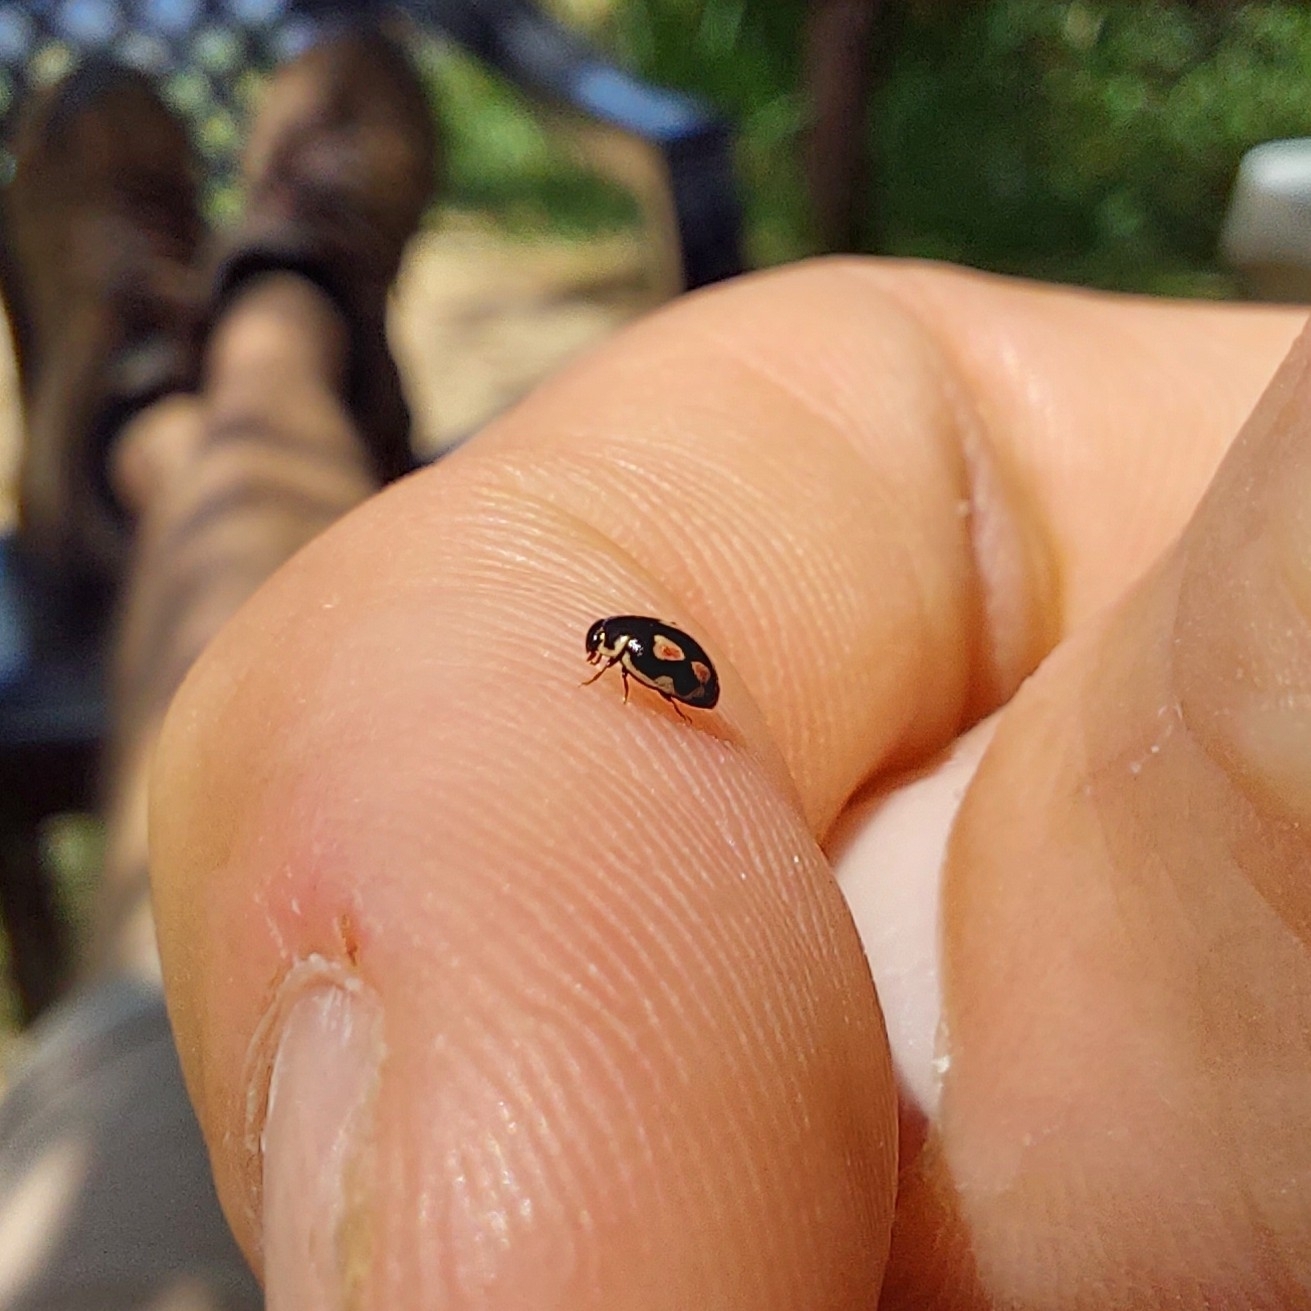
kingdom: Animalia
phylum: Arthropoda
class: Insecta
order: Coleoptera
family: Coccinellidae
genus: Hyperaspis
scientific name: Hyperaspis festiva
